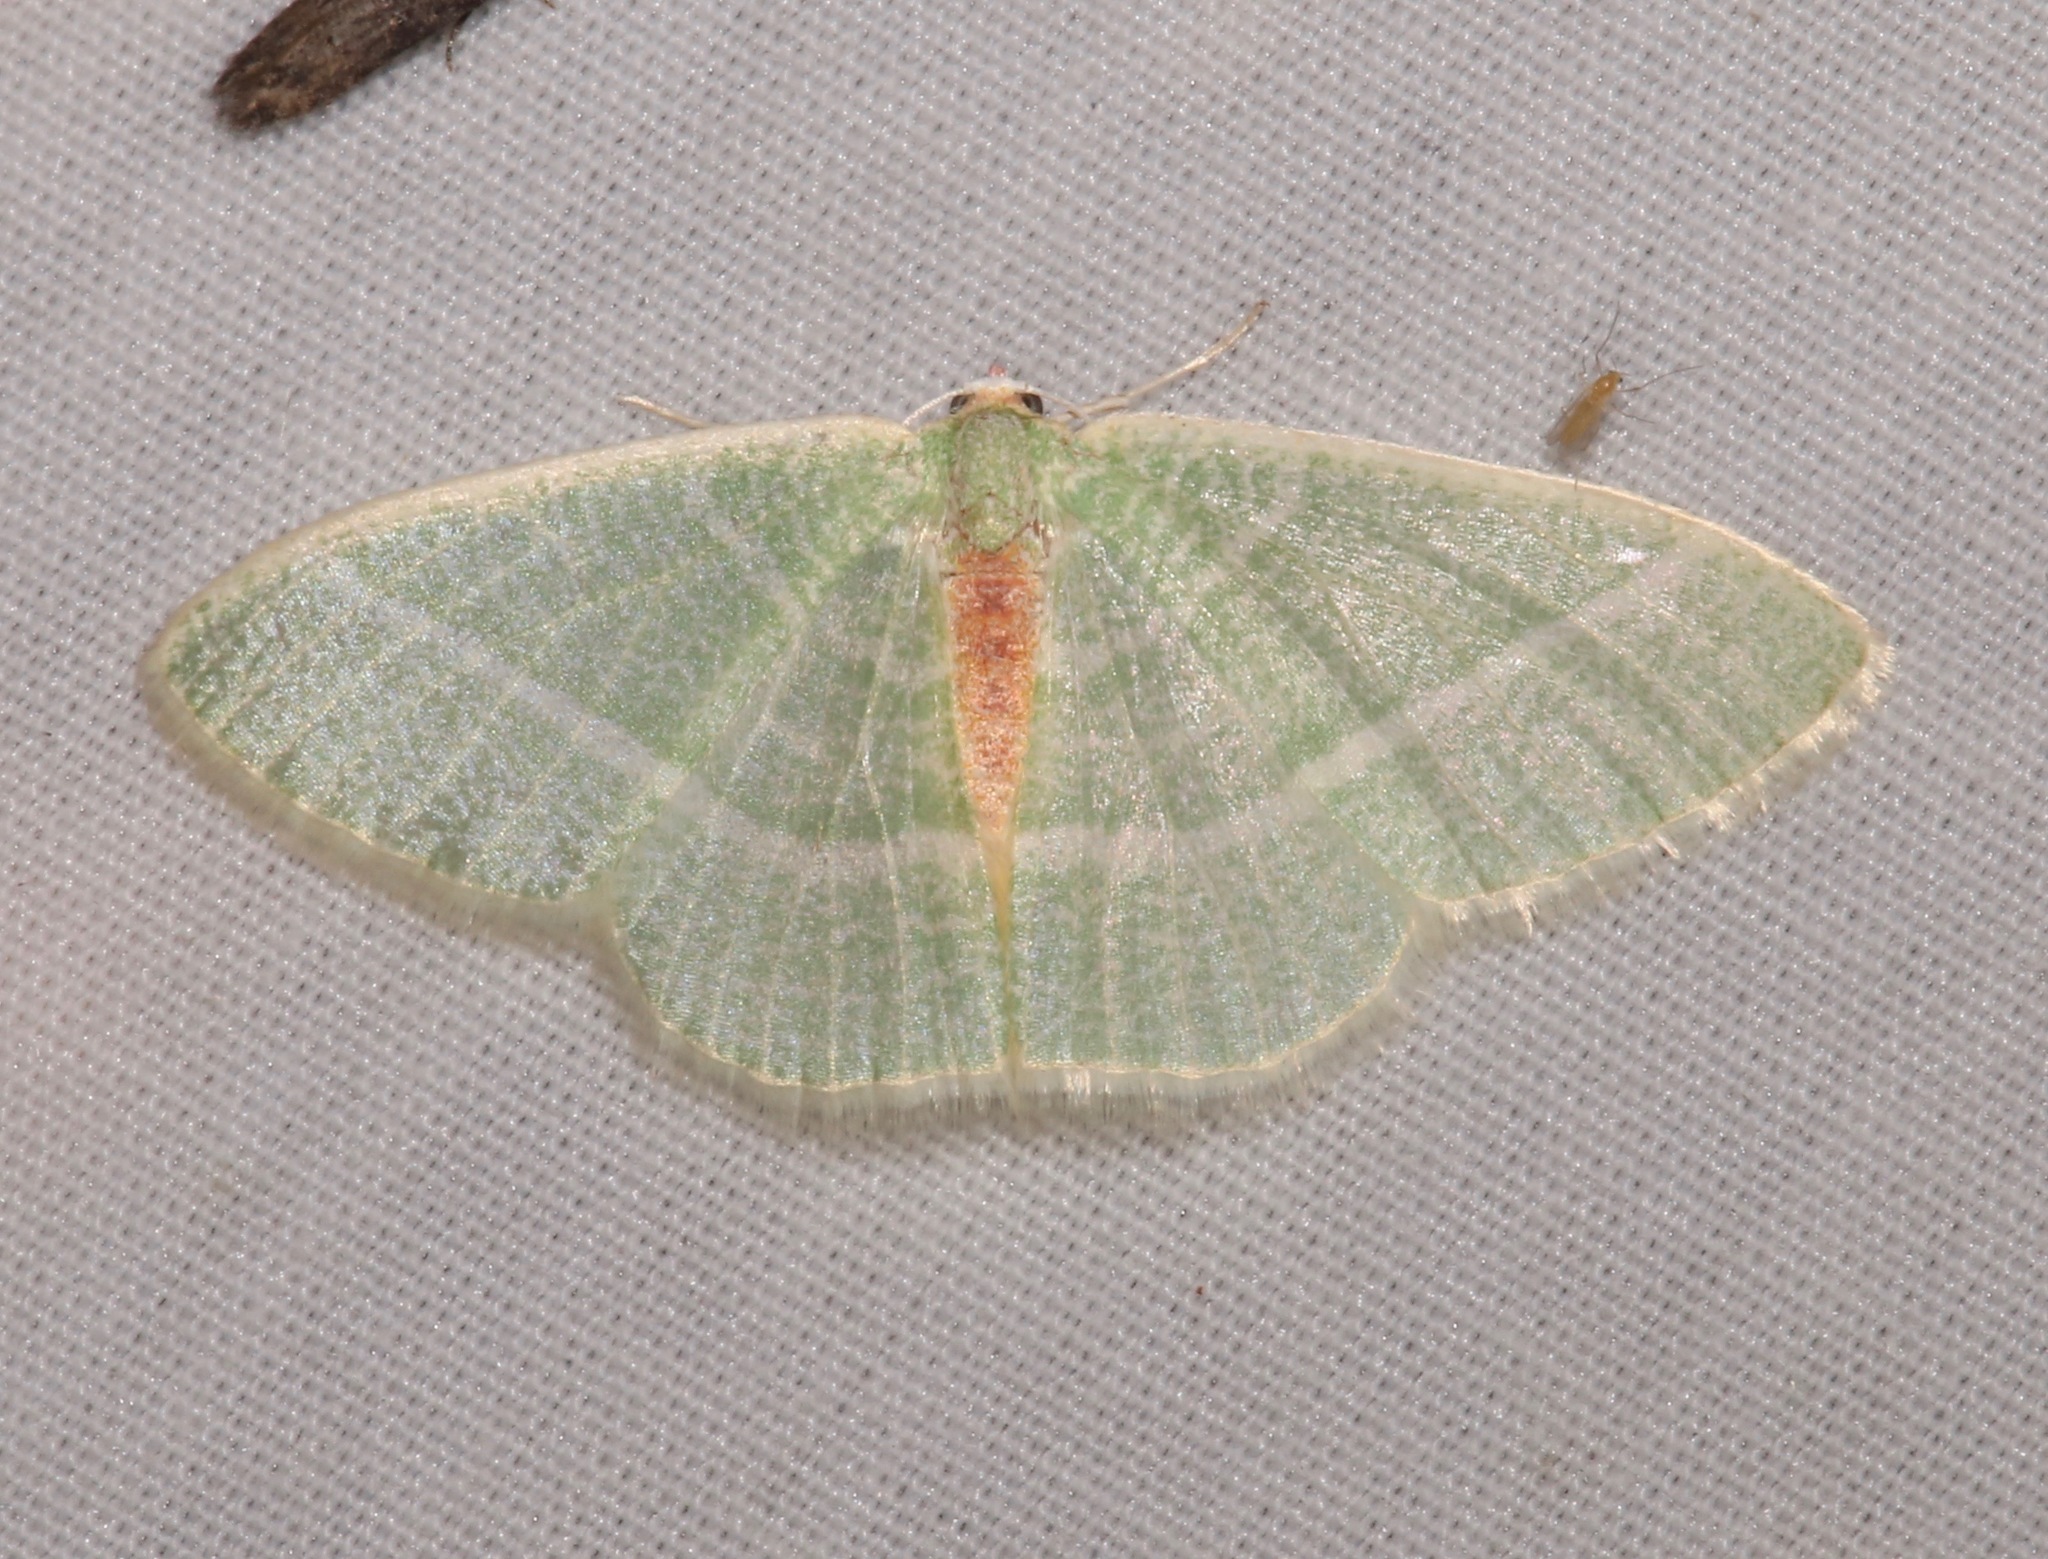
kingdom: Animalia
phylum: Arthropoda
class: Insecta
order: Lepidoptera
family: Geometridae
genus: Nemoria
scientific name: Nemoria arizonaria
